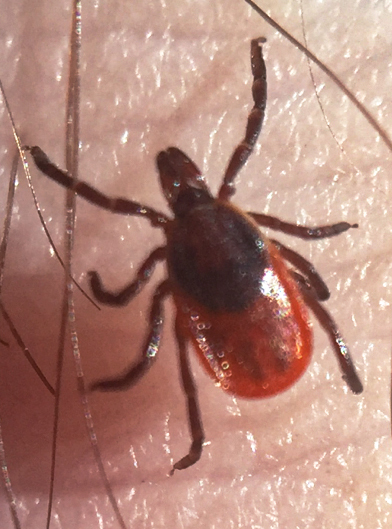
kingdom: Animalia
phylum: Arthropoda
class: Arachnida
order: Ixodida
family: Ixodidae
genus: Ixodes
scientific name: Ixodes scapularis
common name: Black legged tick
